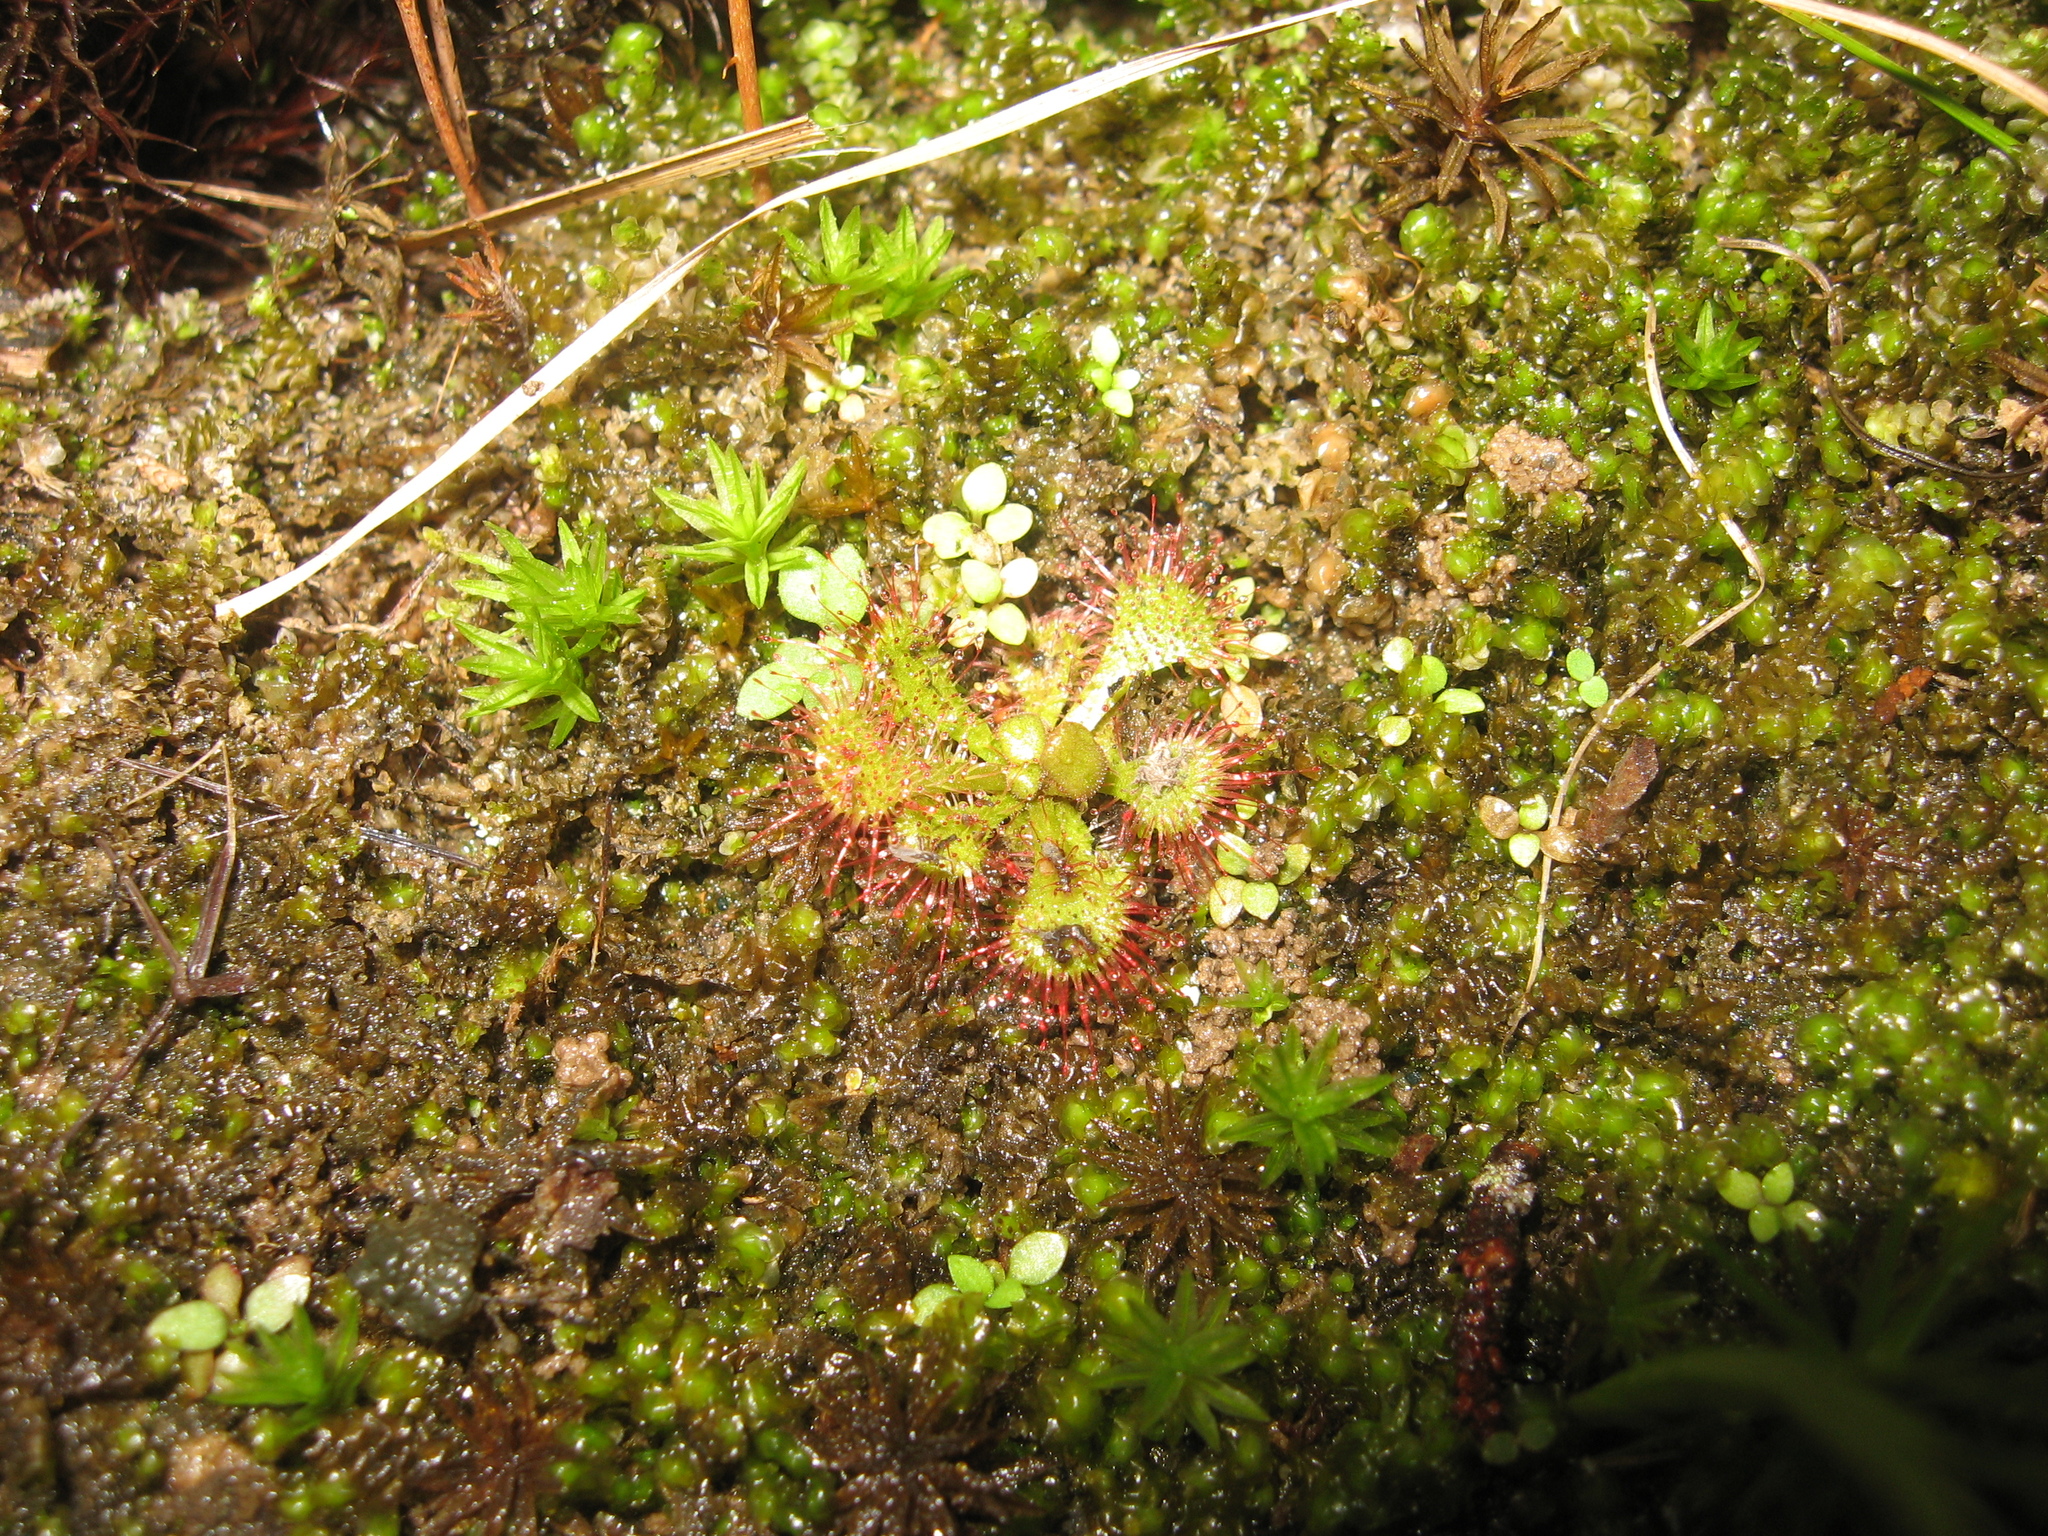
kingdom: Plantae
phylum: Tracheophyta
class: Magnoliopsida
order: Caryophyllales
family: Droseraceae
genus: Drosera
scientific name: Drosera brevifolia
